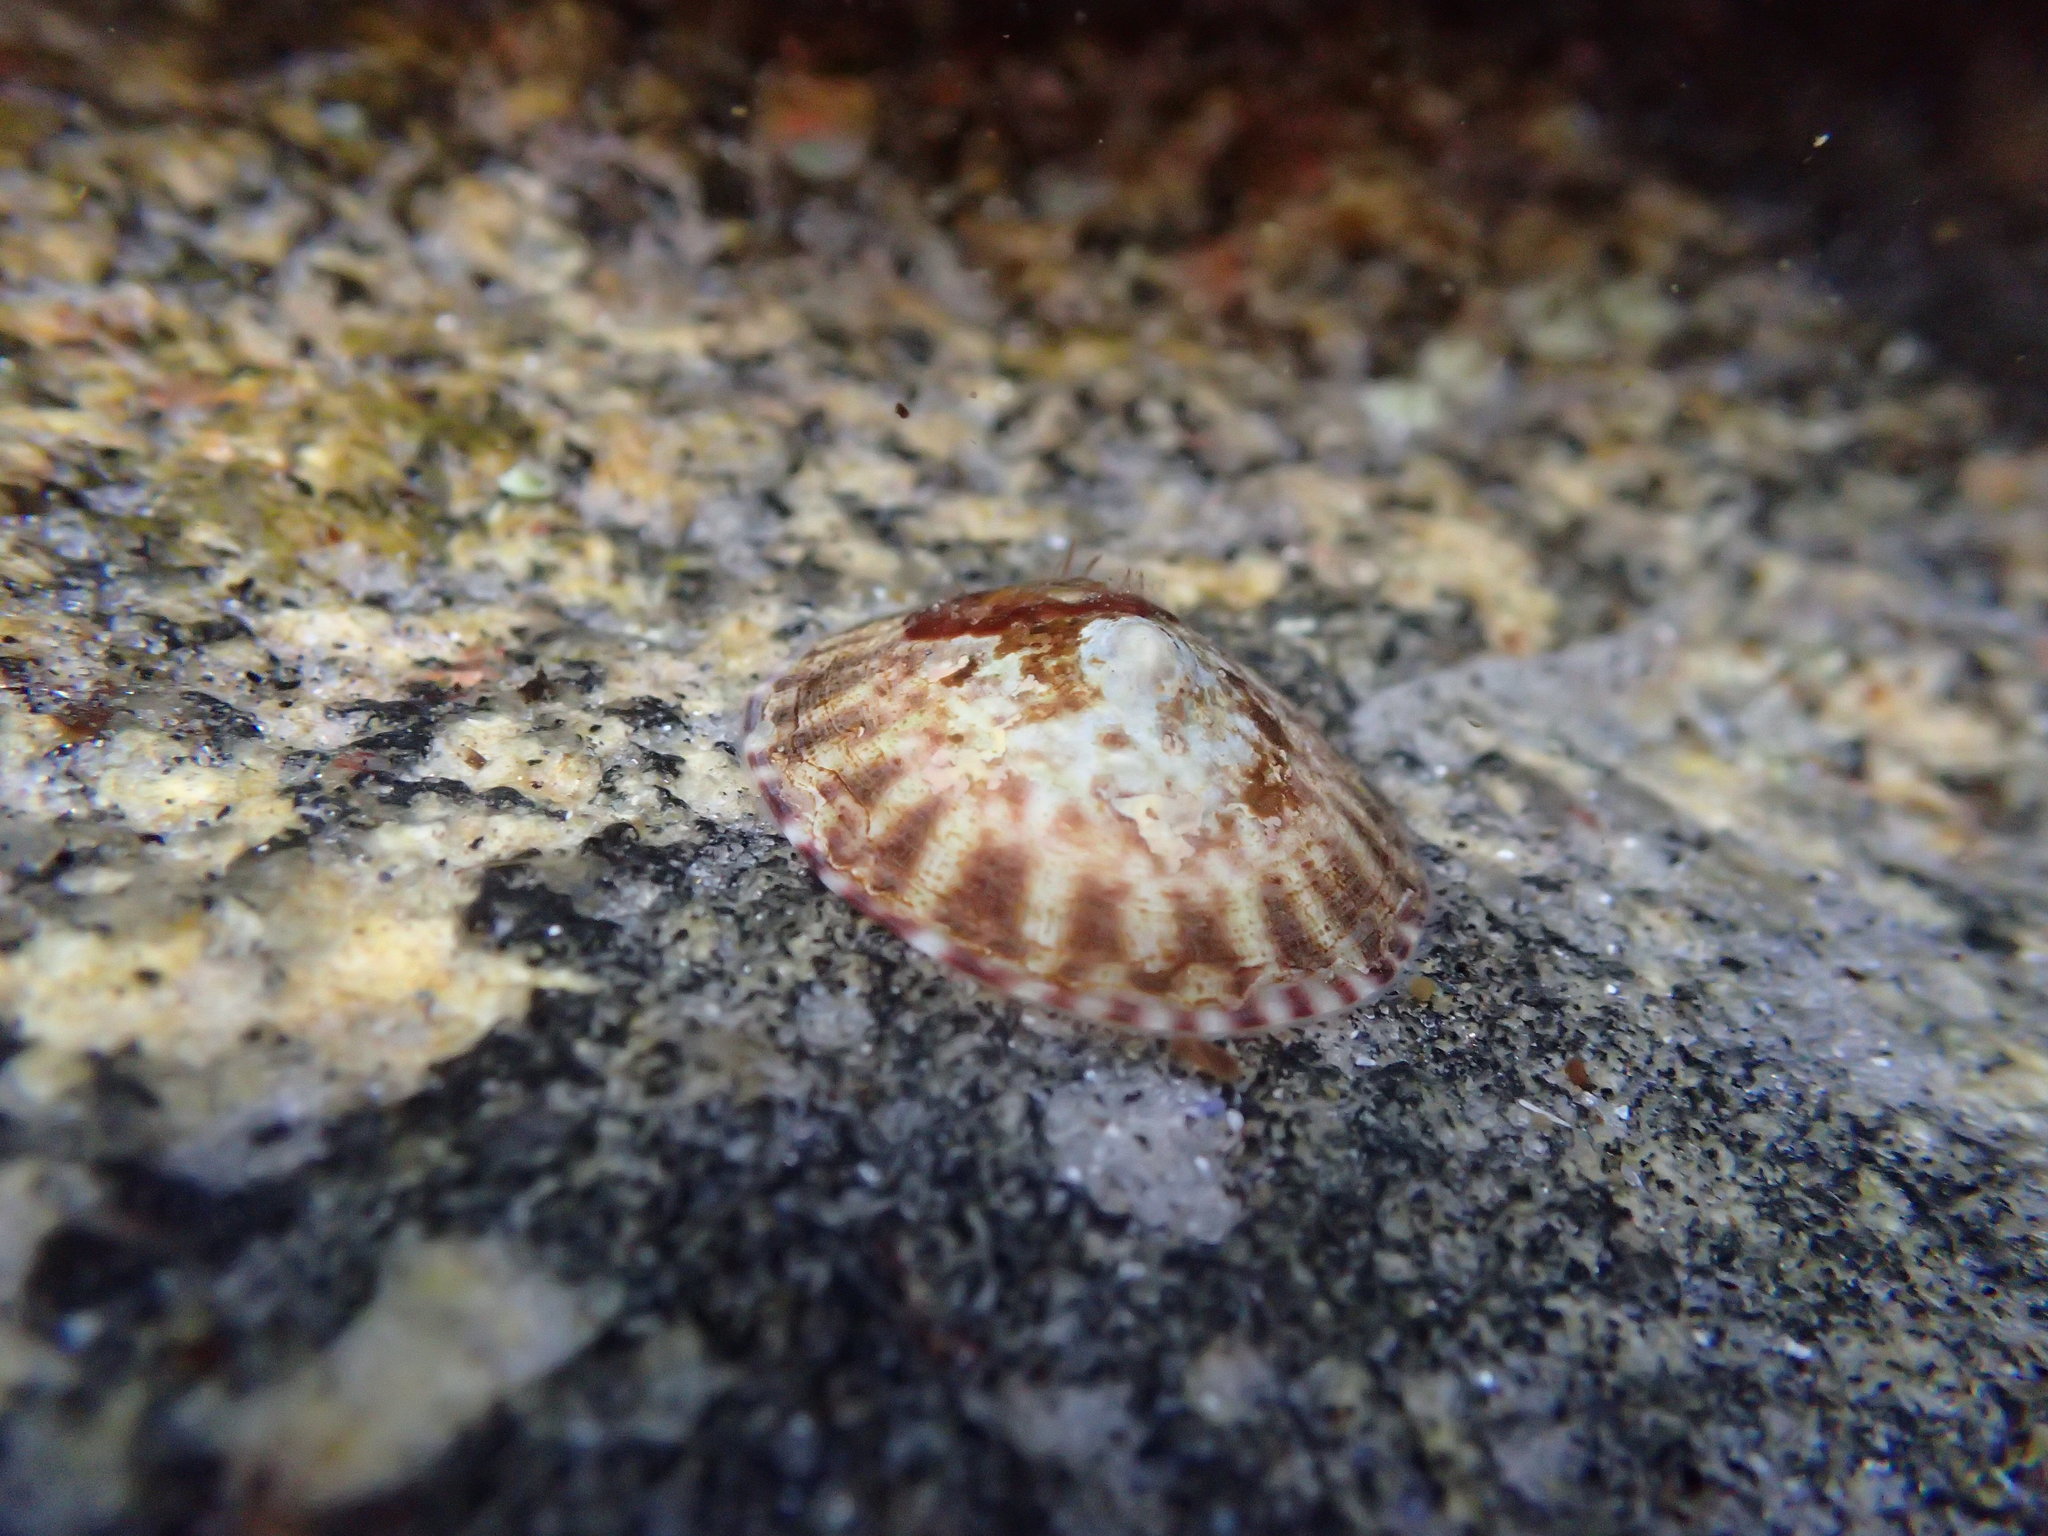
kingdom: Animalia
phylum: Mollusca
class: Gastropoda
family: Lottiidae
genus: Testudinalia
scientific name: Testudinalia testudinalis
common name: Common tortoiseshell limpet
